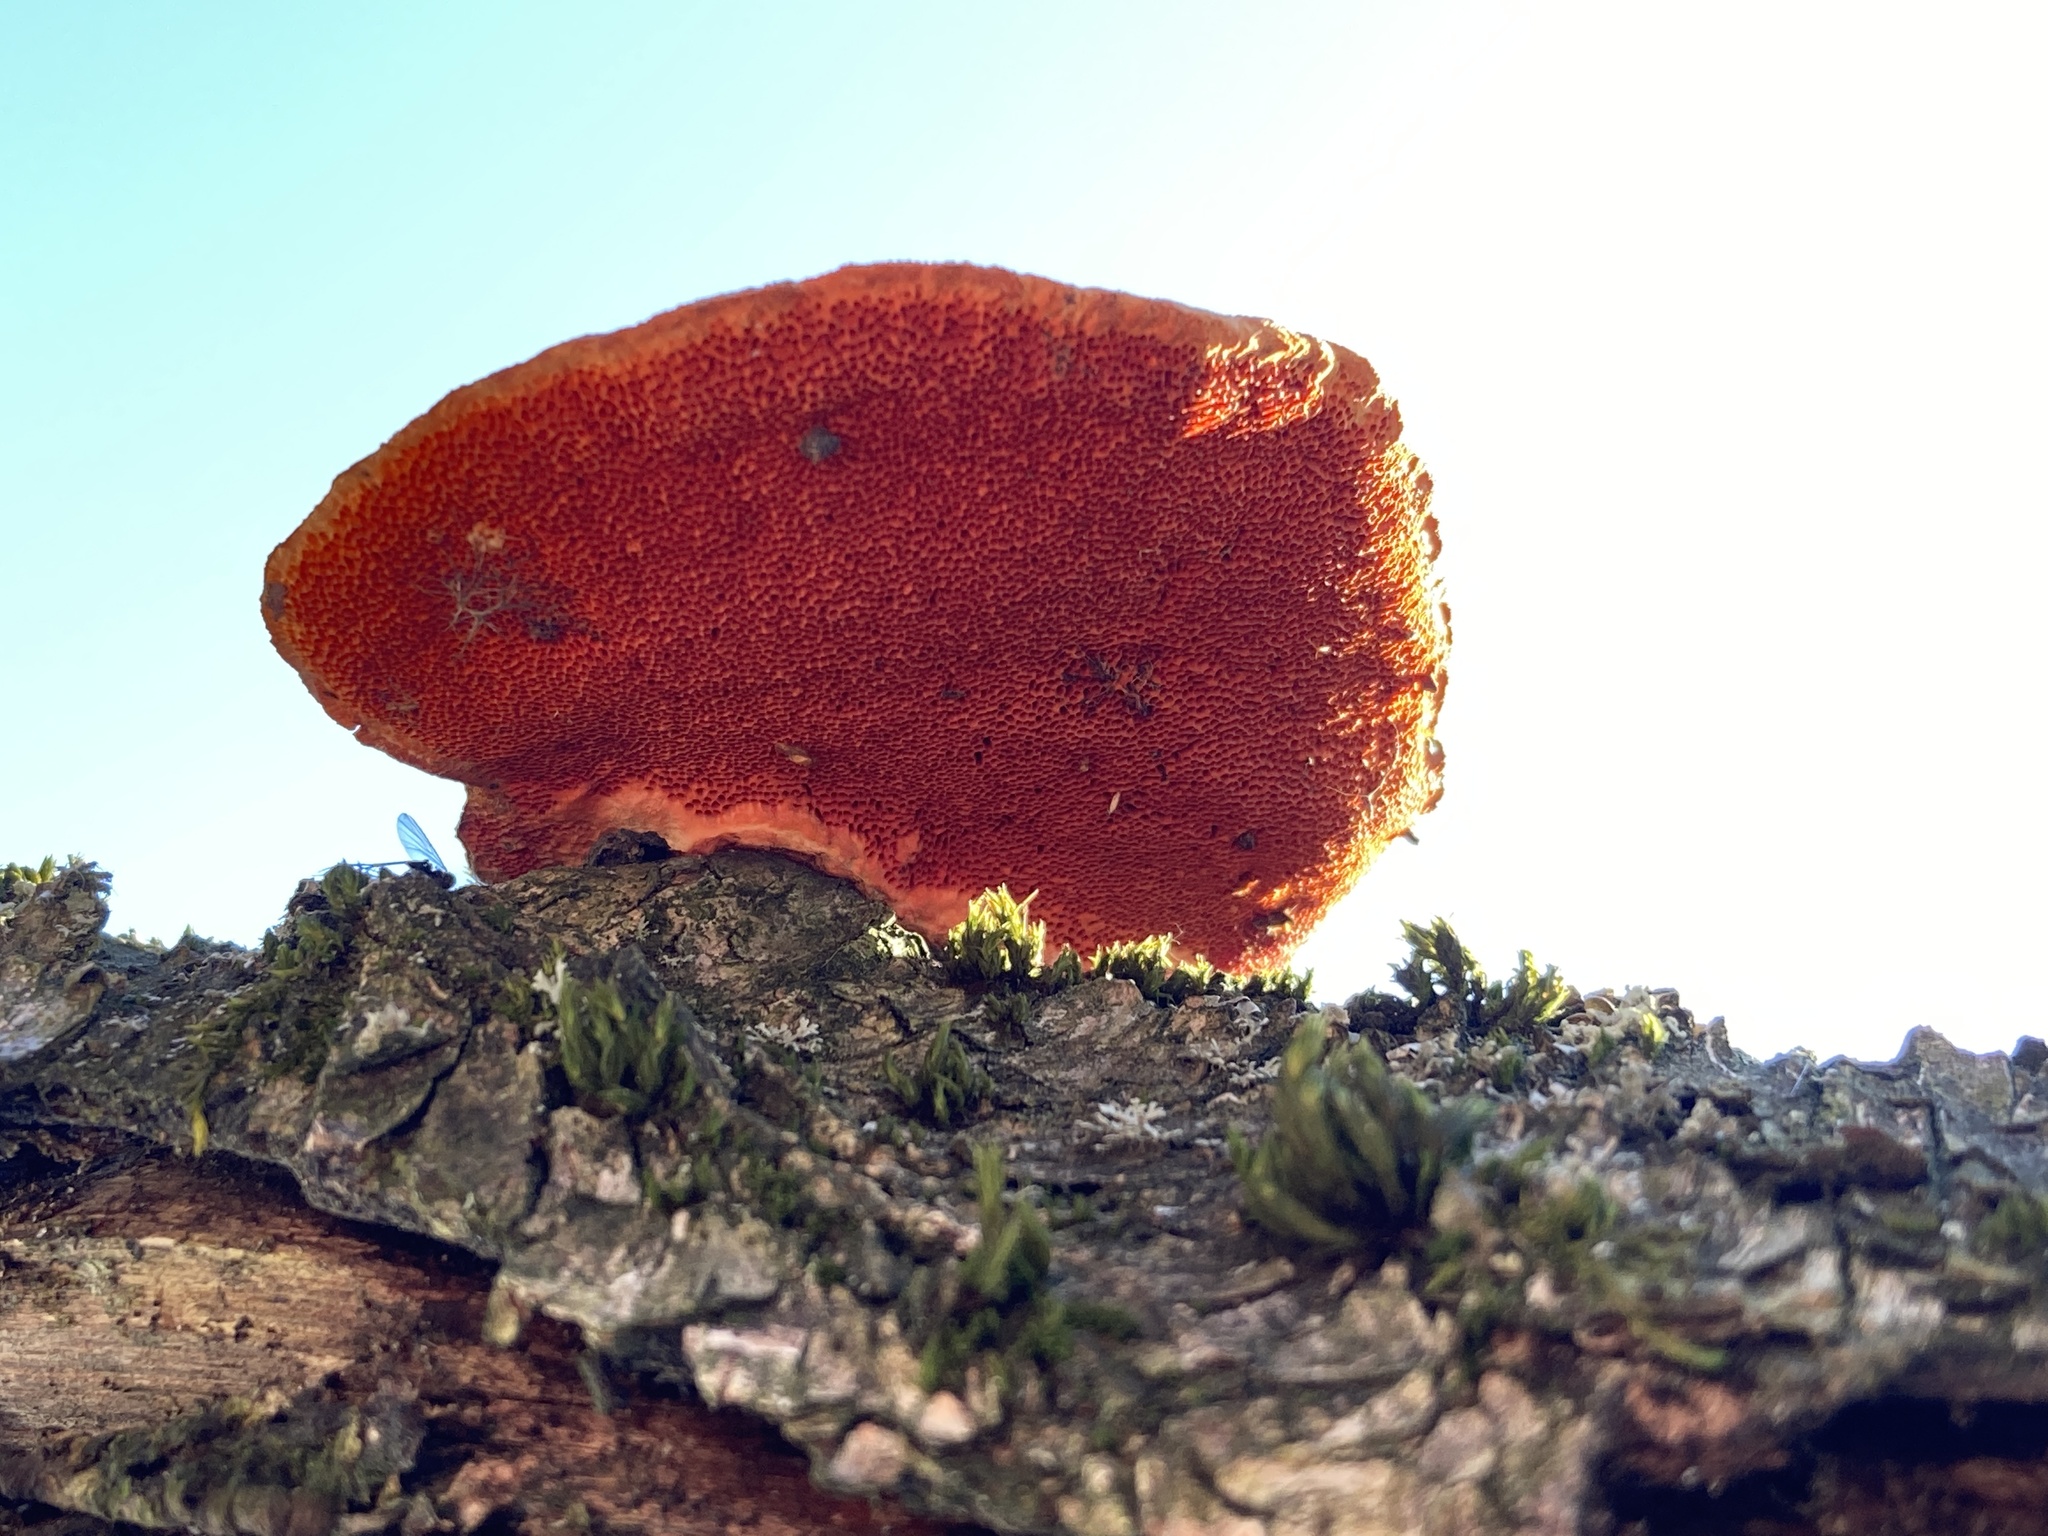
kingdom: Fungi
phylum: Basidiomycota
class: Agaricomycetes
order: Polyporales
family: Polyporaceae
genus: Trametes
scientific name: Trametes cinnabarina
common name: Northern cinnabar polypore
